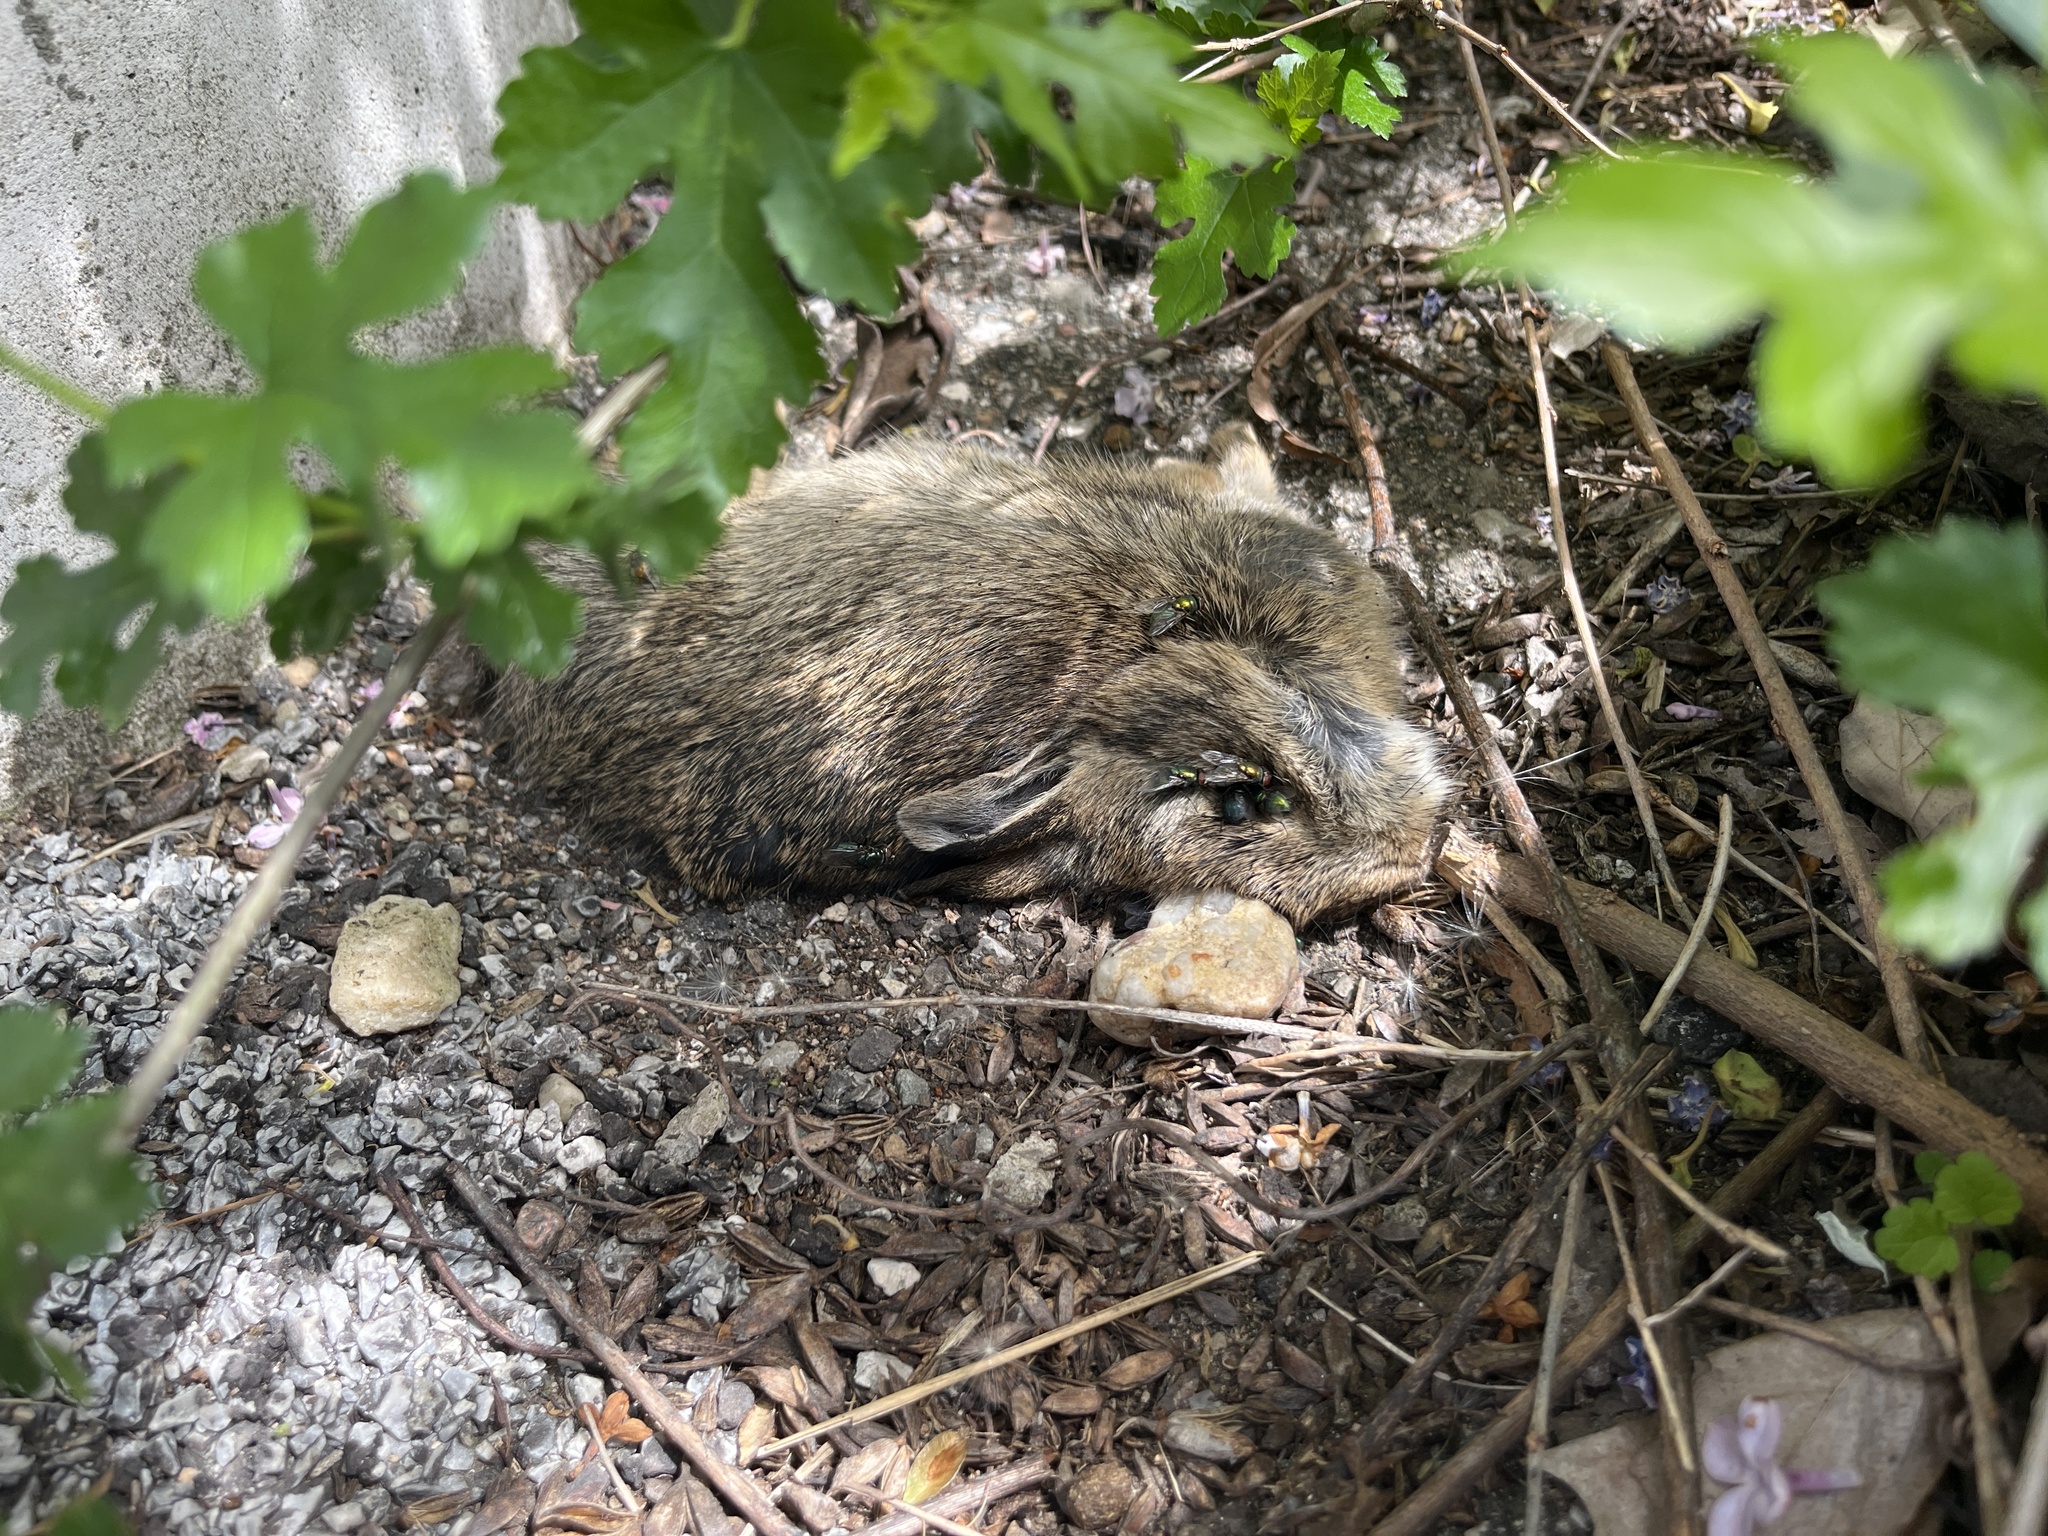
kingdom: Animalia
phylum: Chordata
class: Mammalia
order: Lagomorpha
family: Leporidae
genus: Sylvilagus
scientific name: Sylvilagus floridanus
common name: Eastern cottontail
